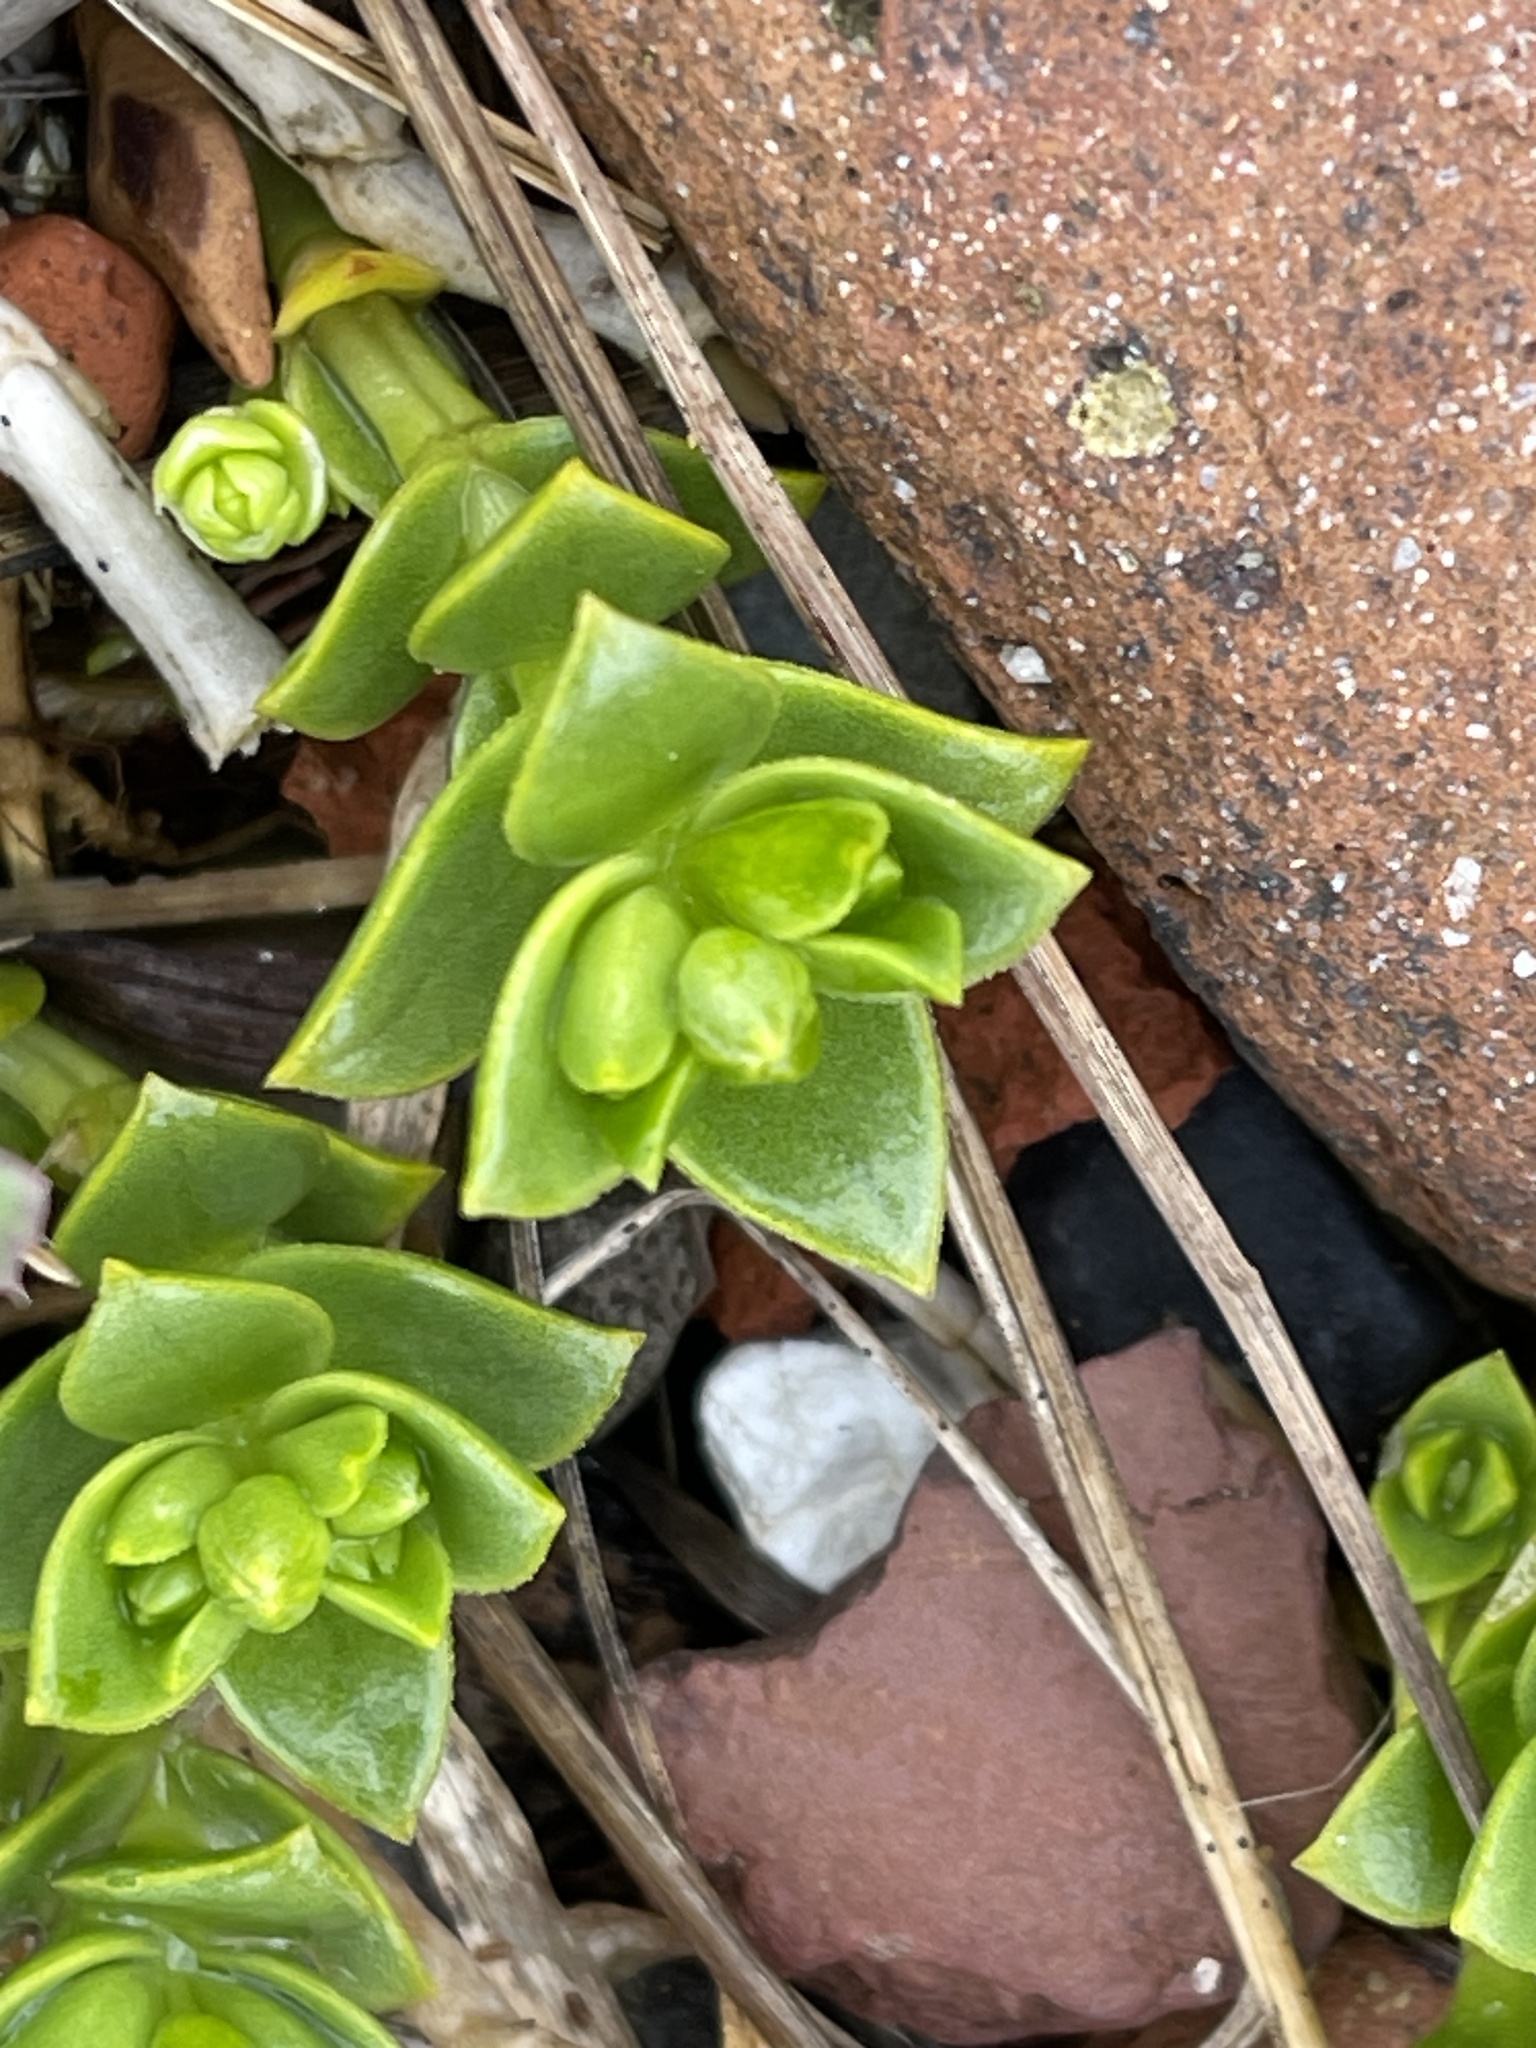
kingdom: Plantae
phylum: Tracheophyta
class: Magnoliopsida
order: Caryophyllales
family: Caryophyllaceae
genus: Honckenya
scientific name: Honckenya peploides
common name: Sea sandwort
